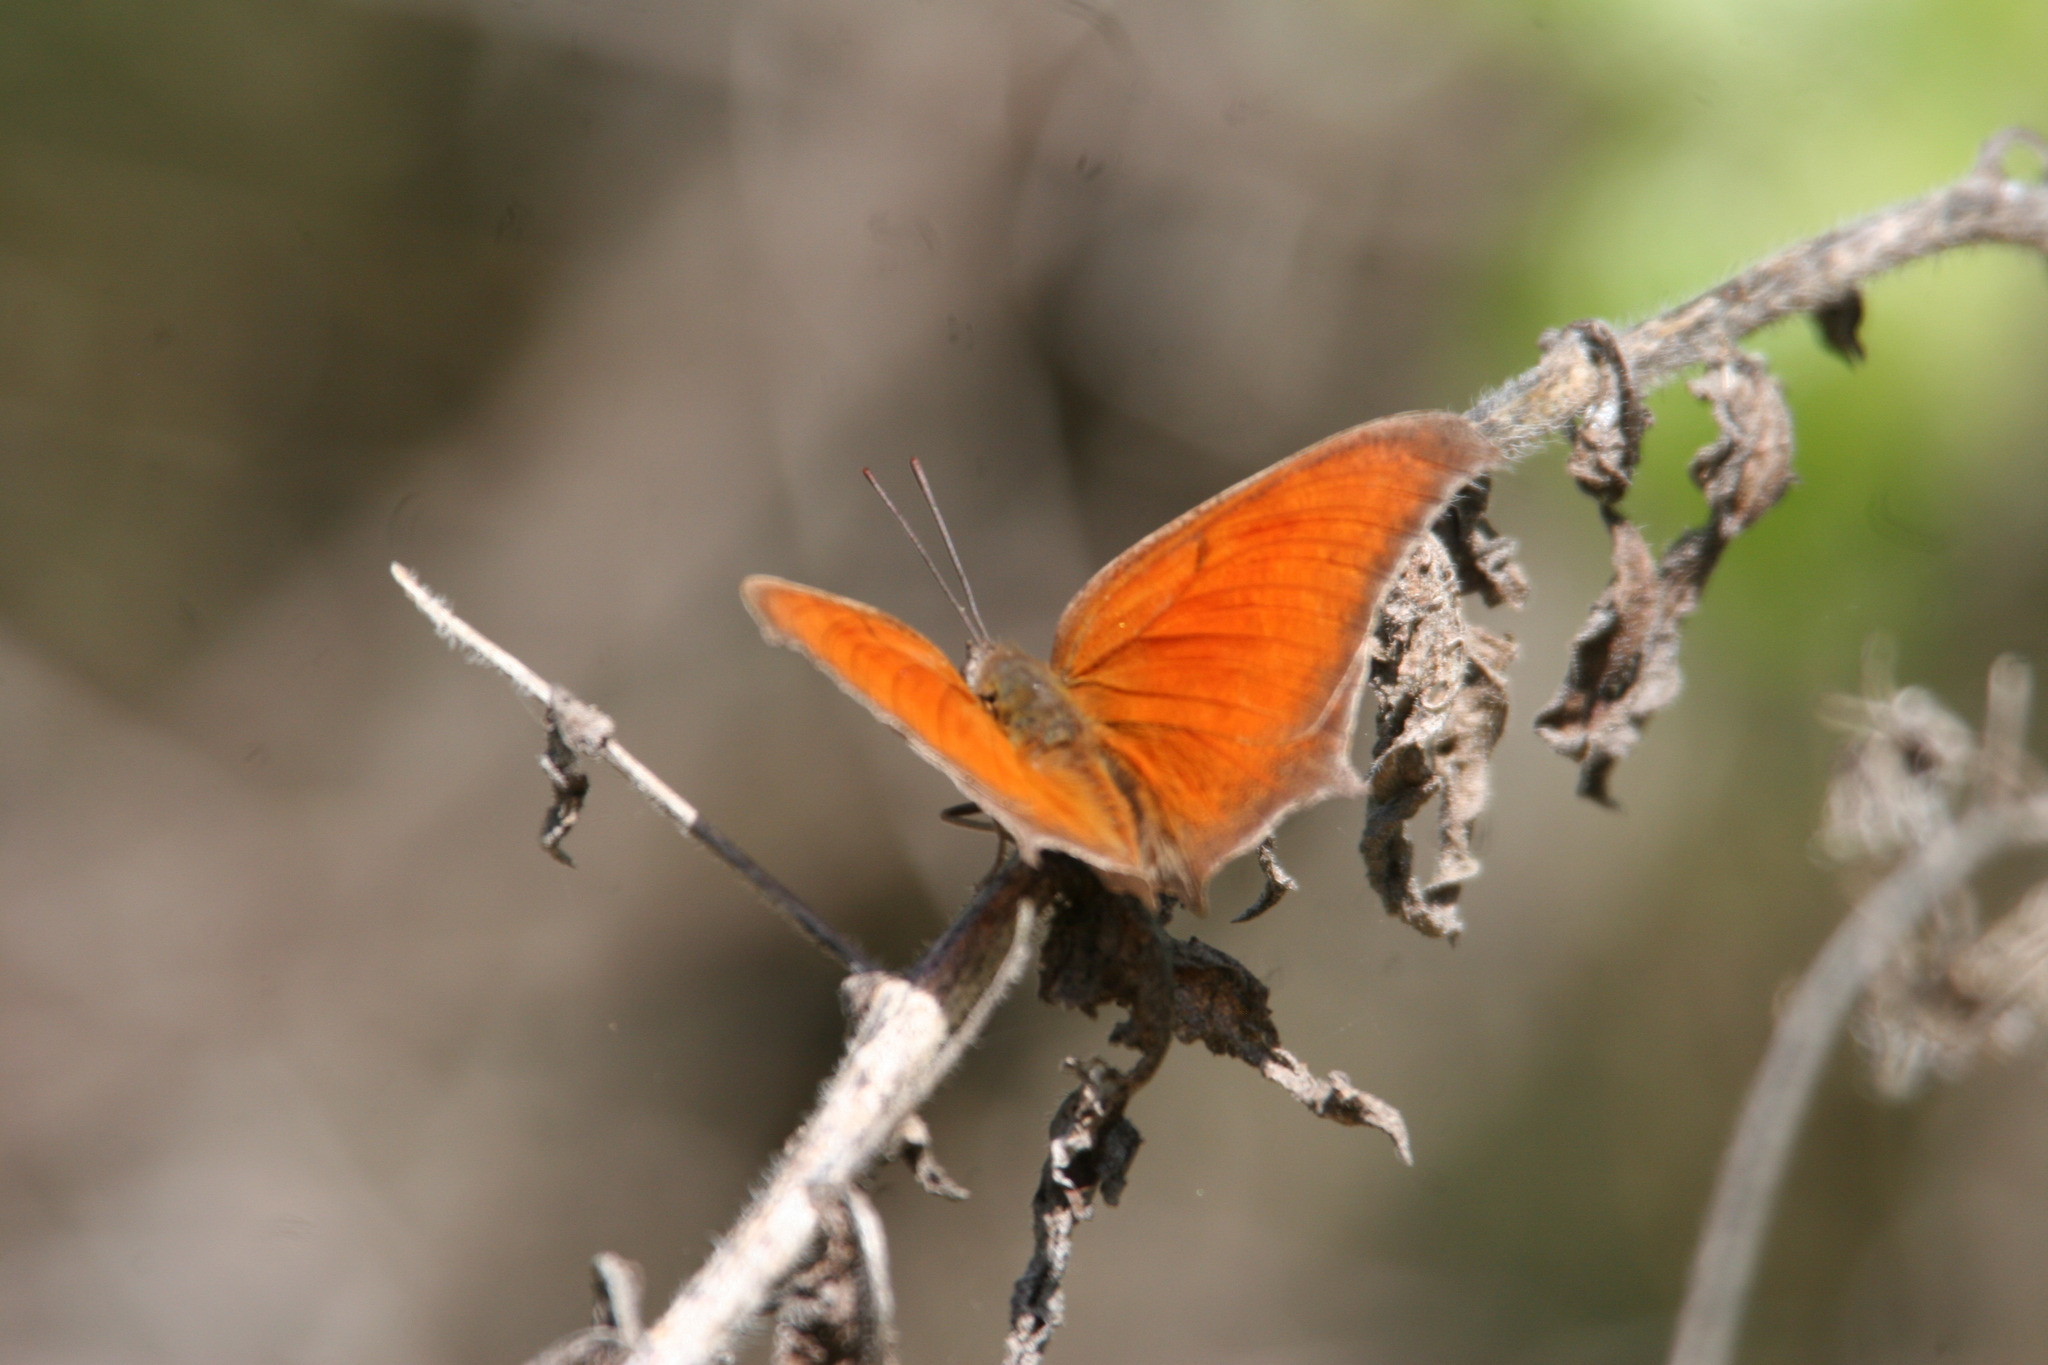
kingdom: Animalia
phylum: Arthropoda
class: Insecta
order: Lepidoptera
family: Nymphalidae
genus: Anaea
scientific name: Anaea andria
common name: Goatweed leafwing
